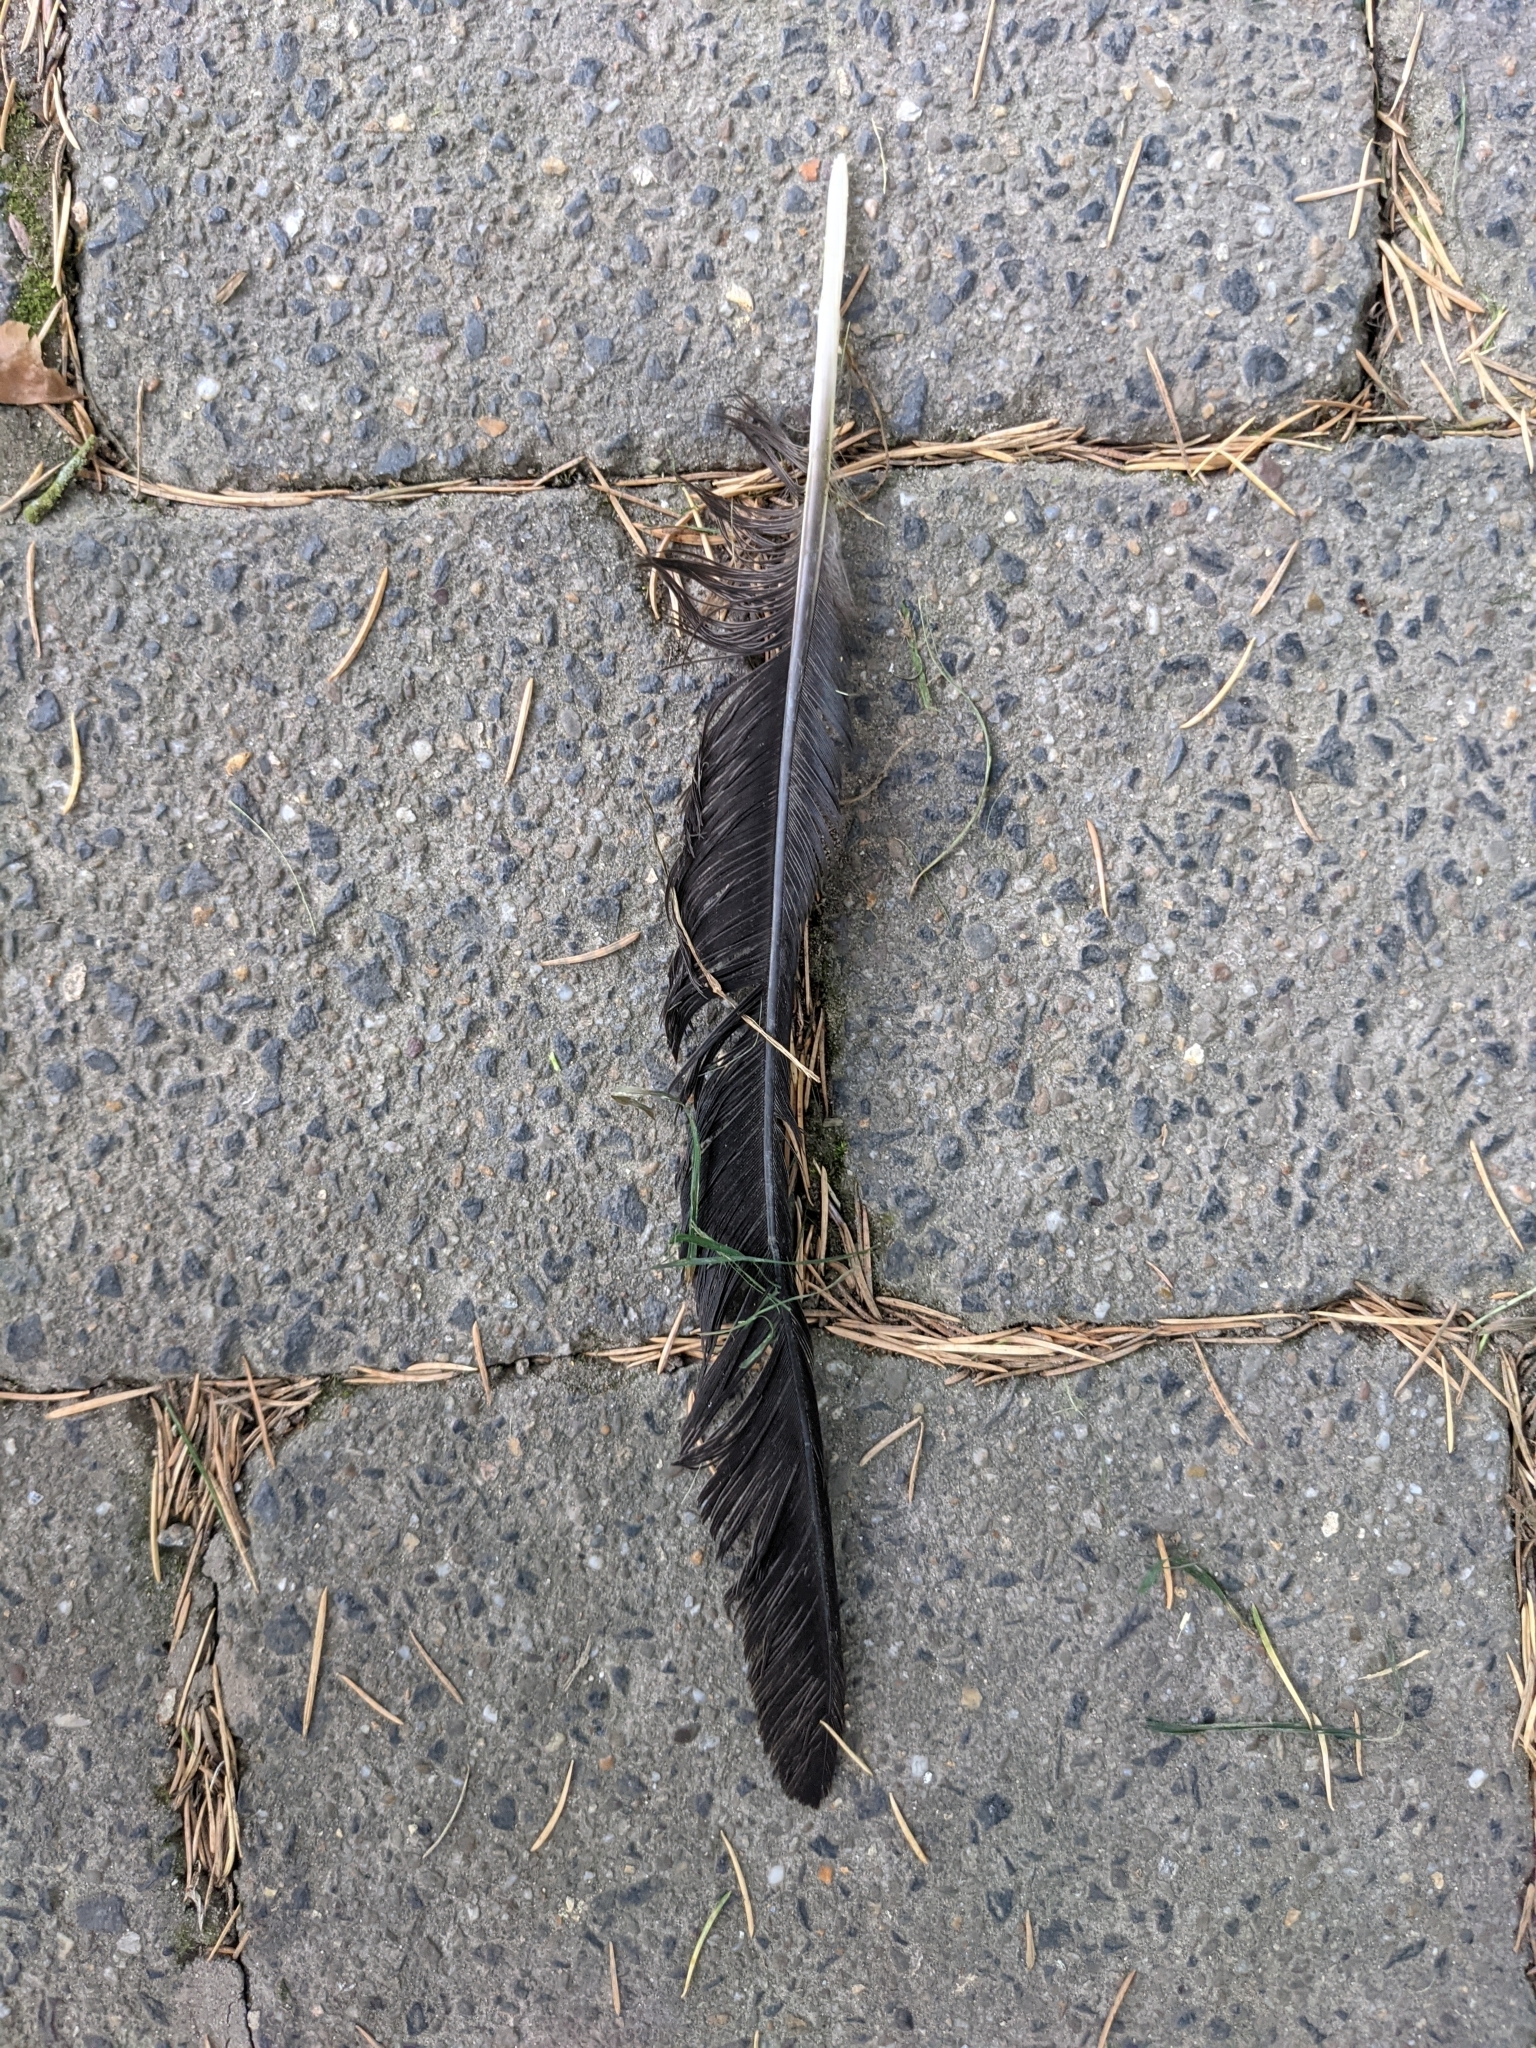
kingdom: Animalia
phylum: Chordata
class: Aves
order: Passeriformes
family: Corvidae
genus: Corvus
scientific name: Corvus
